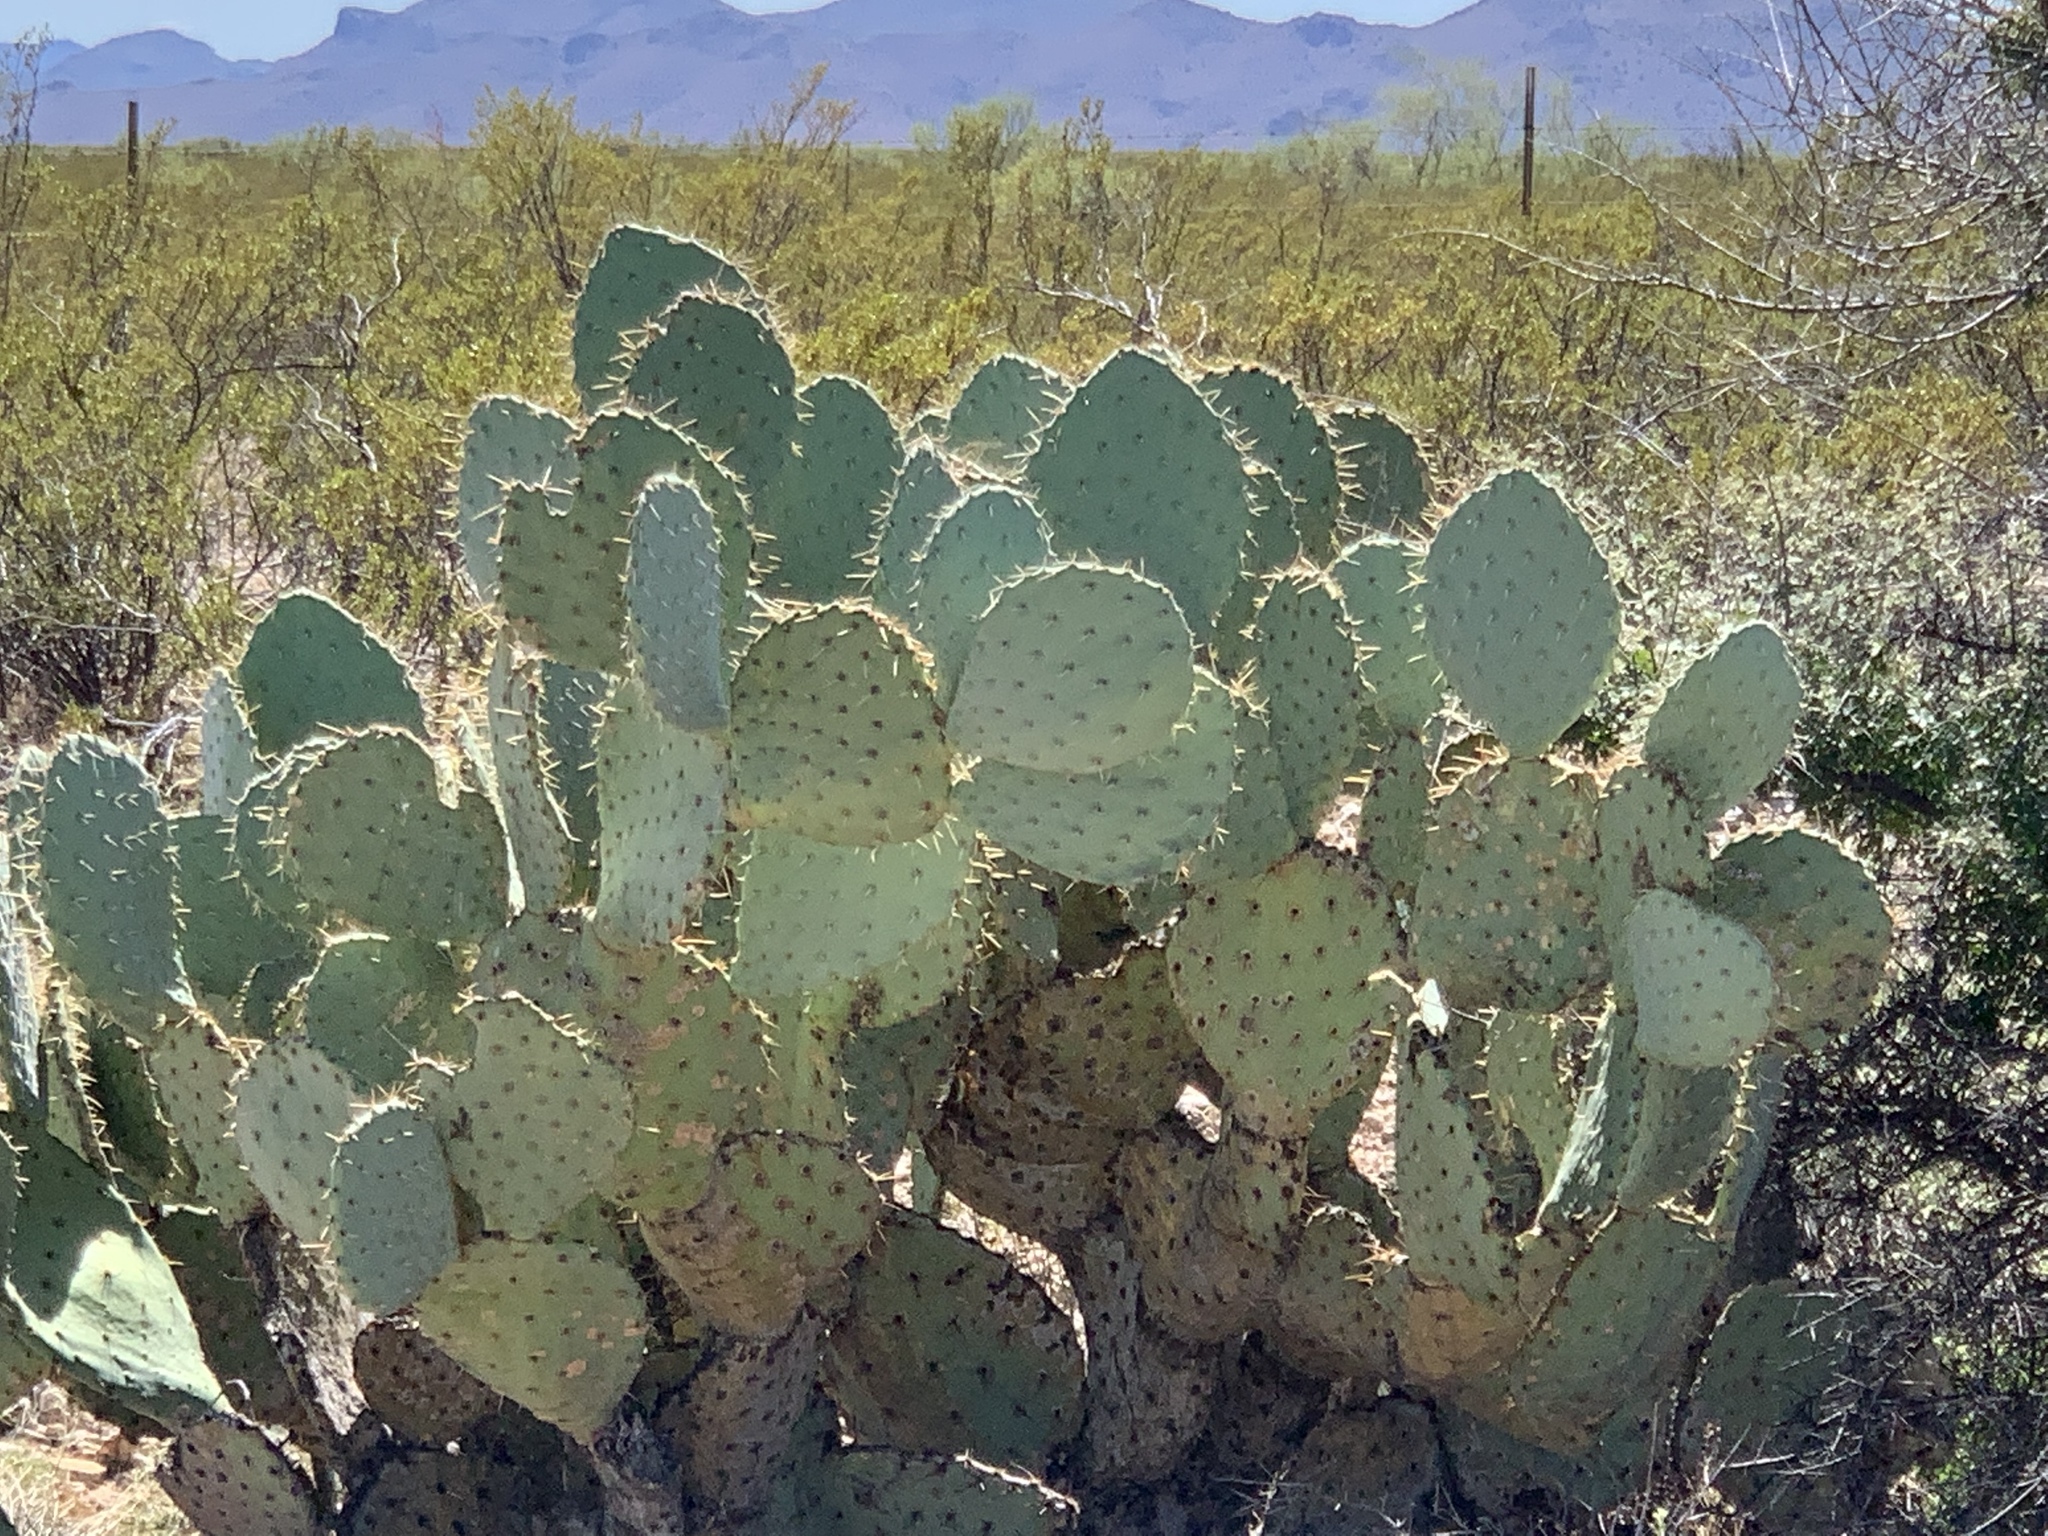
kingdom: Plantae
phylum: Tracheophyta
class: Magnoliopsida
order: Caryophyllales
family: Cactaceae
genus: Opuntia
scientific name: Opuntia orbiculata
